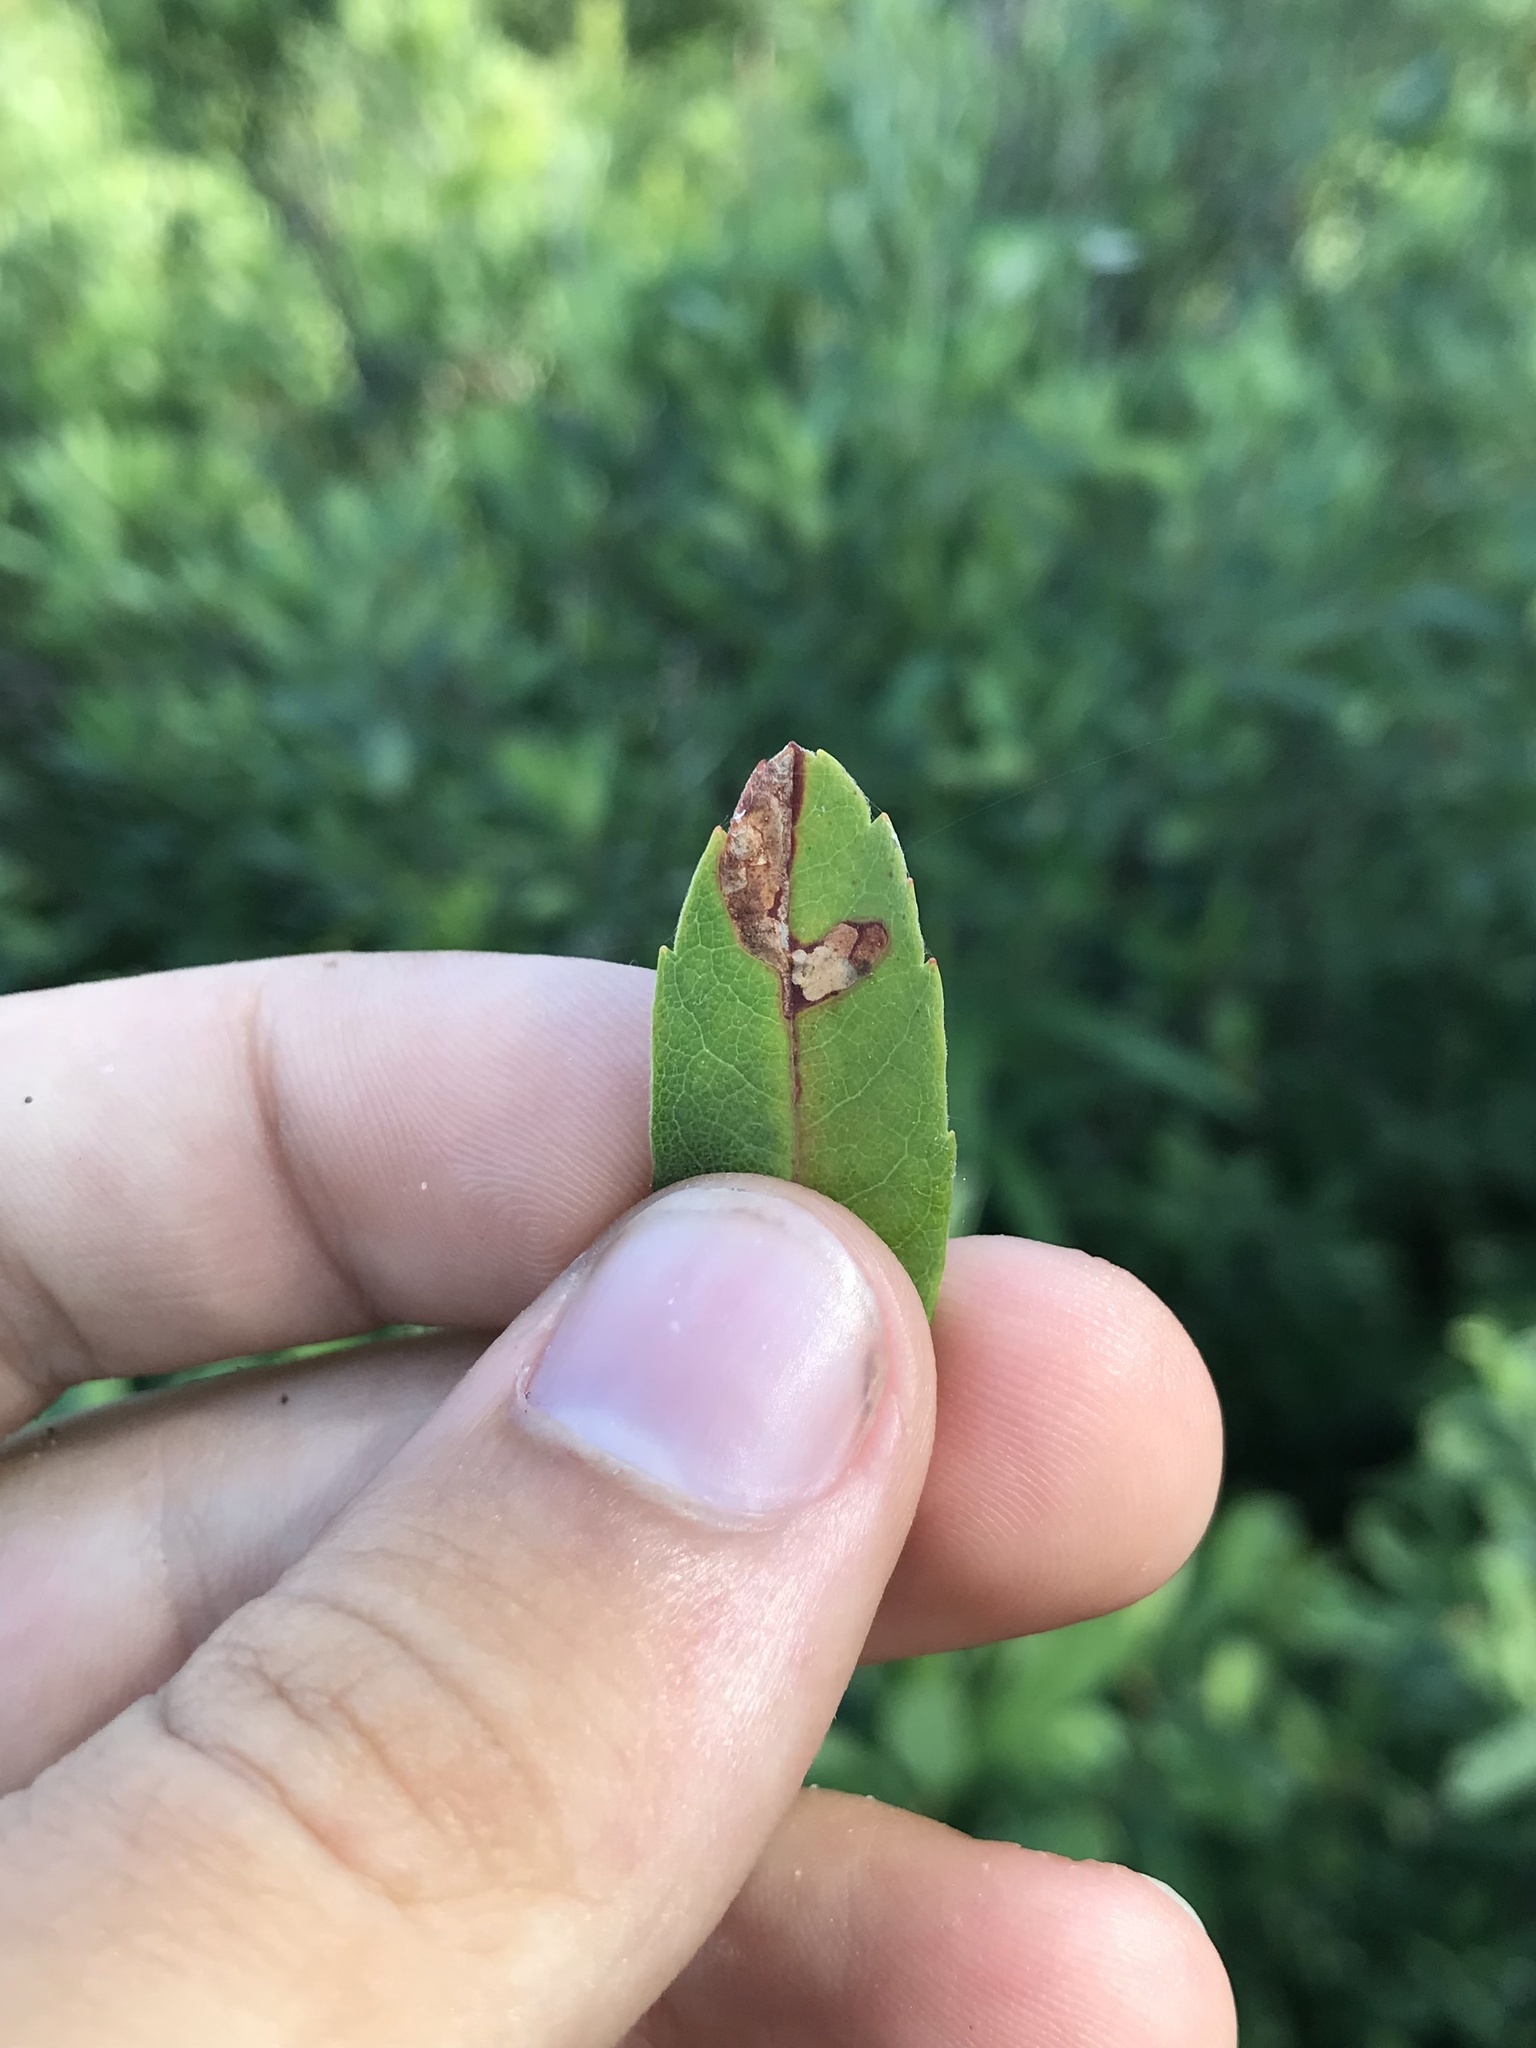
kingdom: Animalia
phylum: Arthropoda
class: Insecta
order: Lepidoptera
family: Gracillariidae
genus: Neurobathra
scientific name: Neurobathra strigifinitella
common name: Finite-channeled leafminer moth
